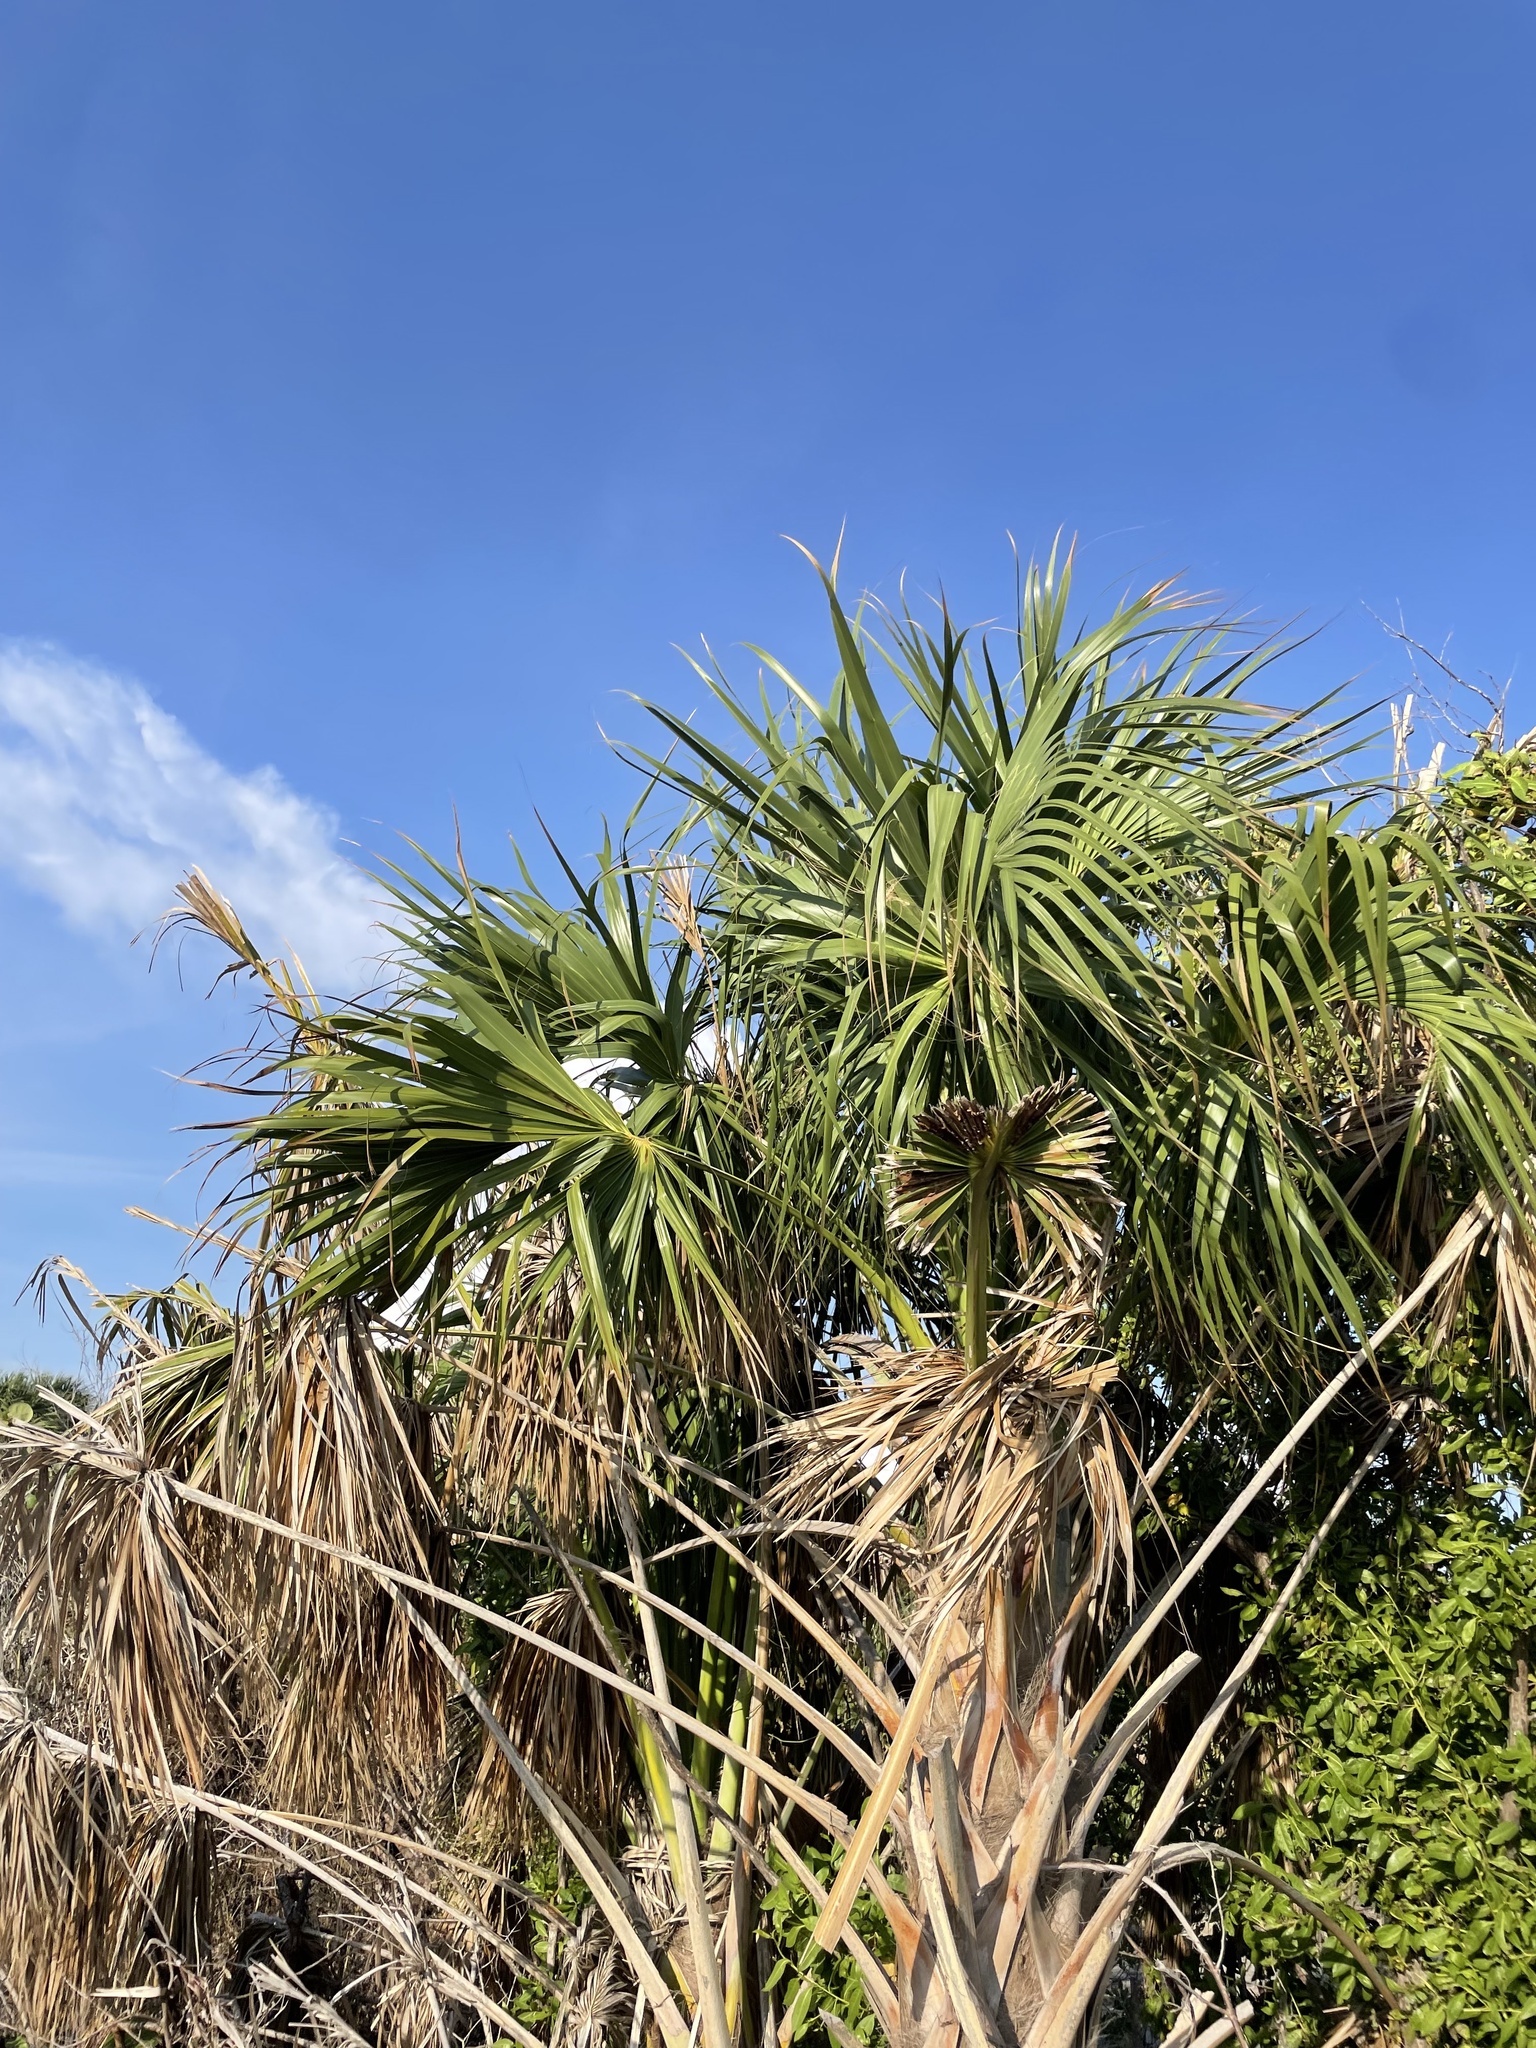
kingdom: Plantae
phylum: Tracheophyta
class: Liliopsida
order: Arecales
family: Arecaceae
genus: Sabal
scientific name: Sabal palmetto
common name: Blue palmetto
